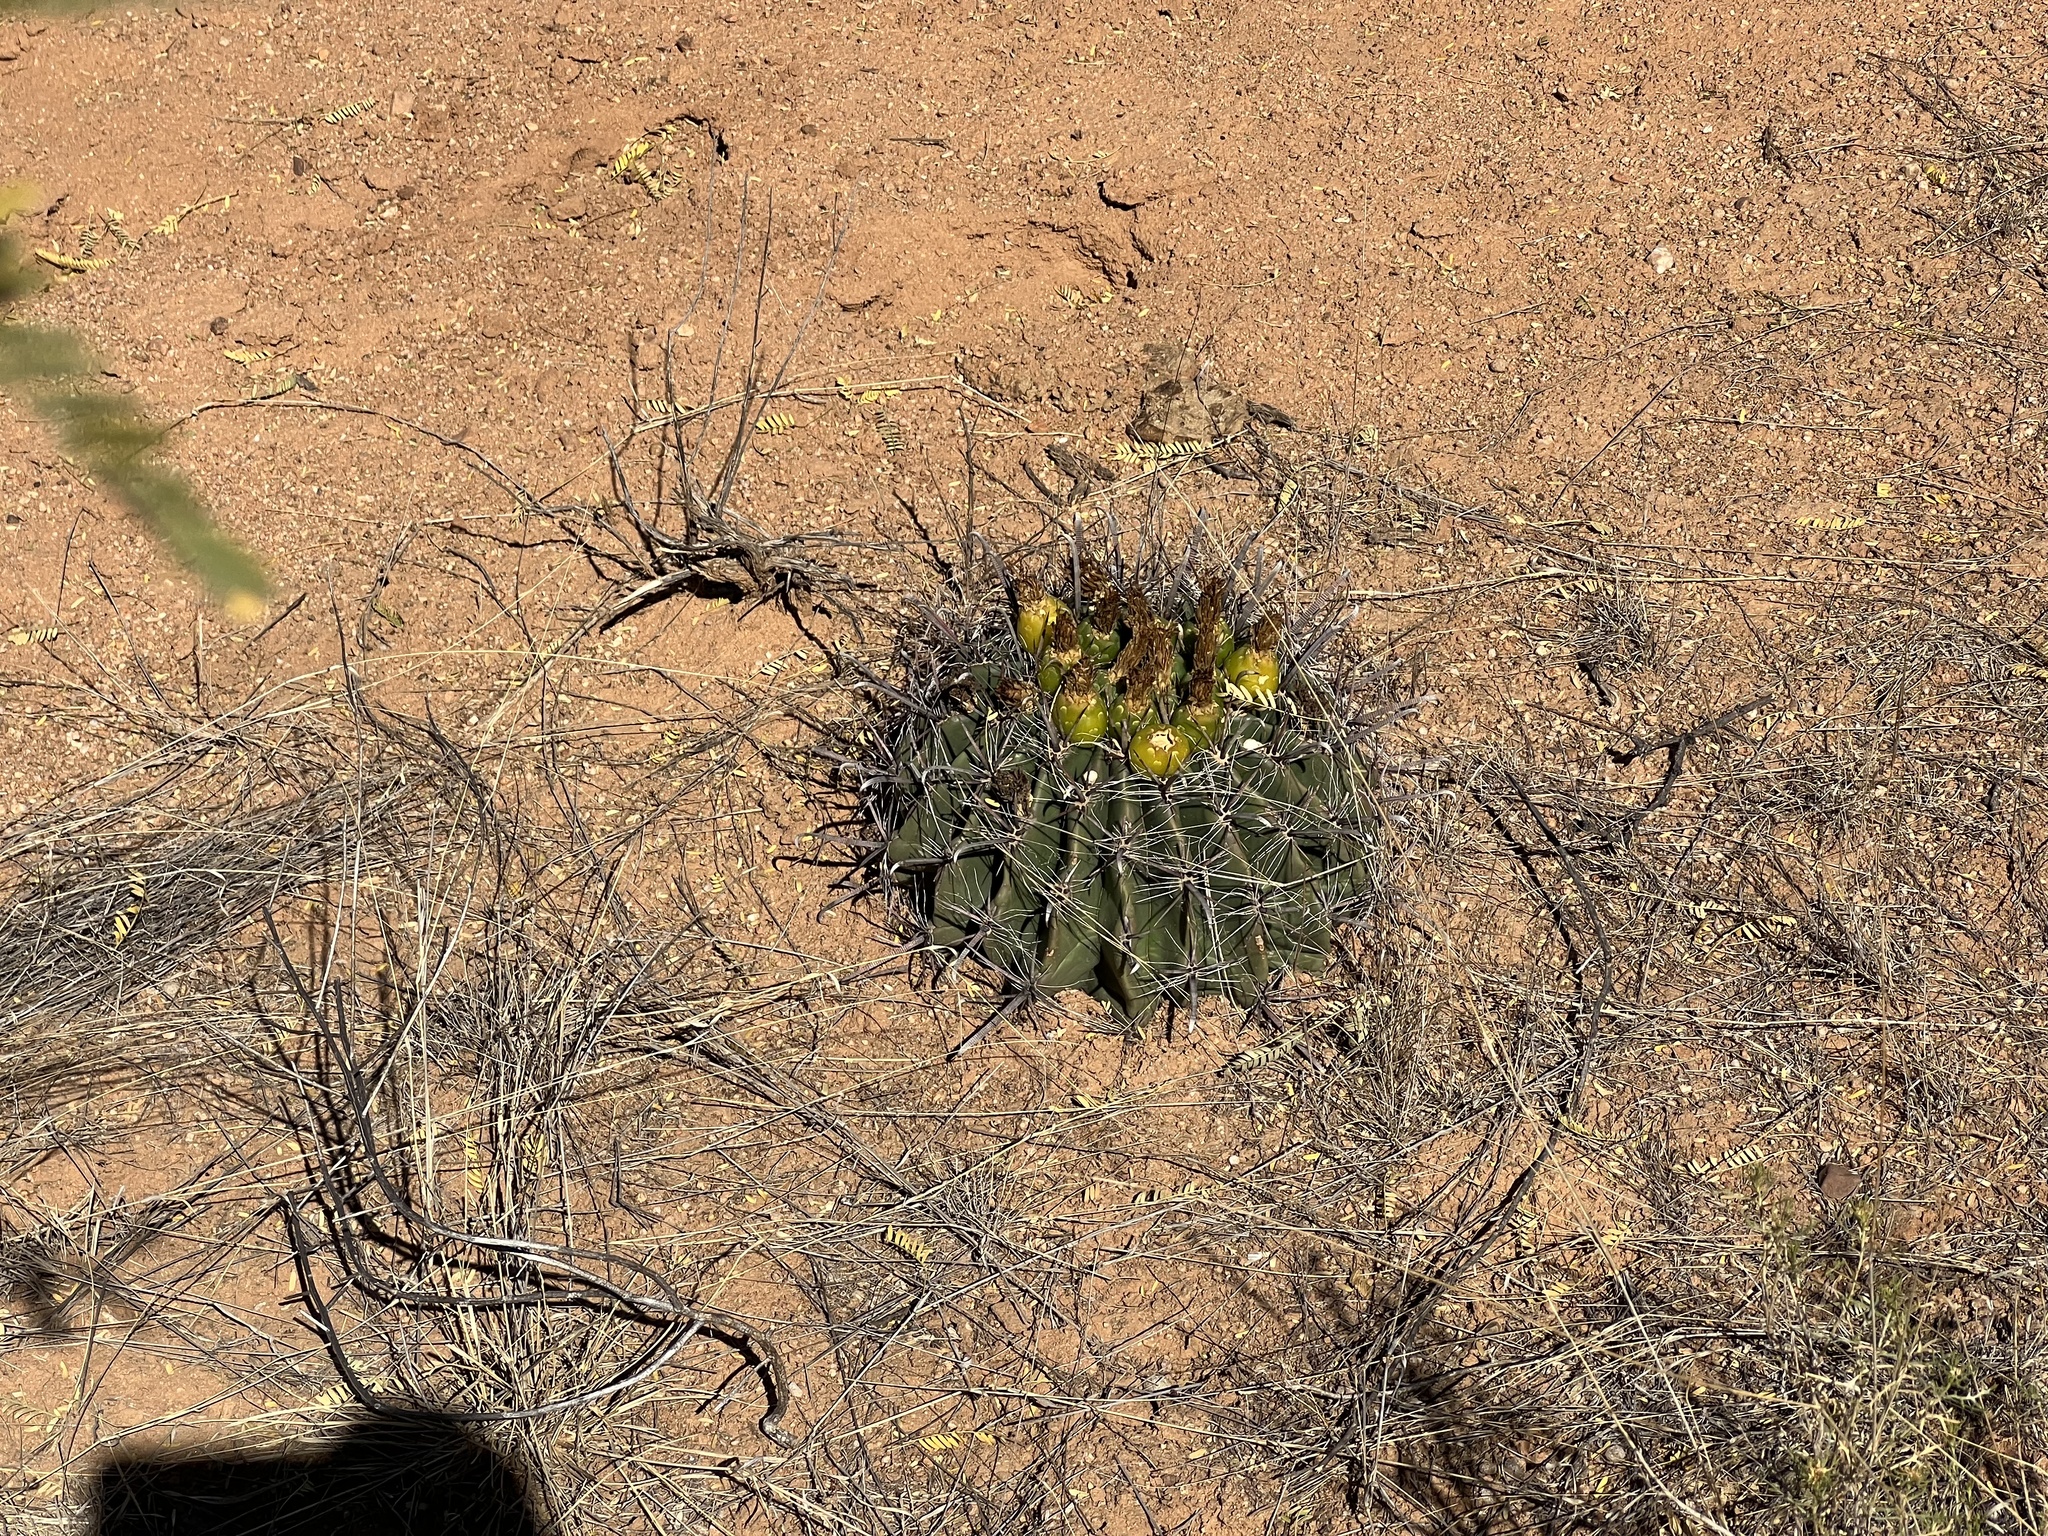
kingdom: Plantae
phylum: Tracheophyta
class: Magnoliopsida
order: Caryophyllales
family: Cactaceae
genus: Ferocactus
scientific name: Ferocactus wislizeni
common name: Candy barrel cactus
